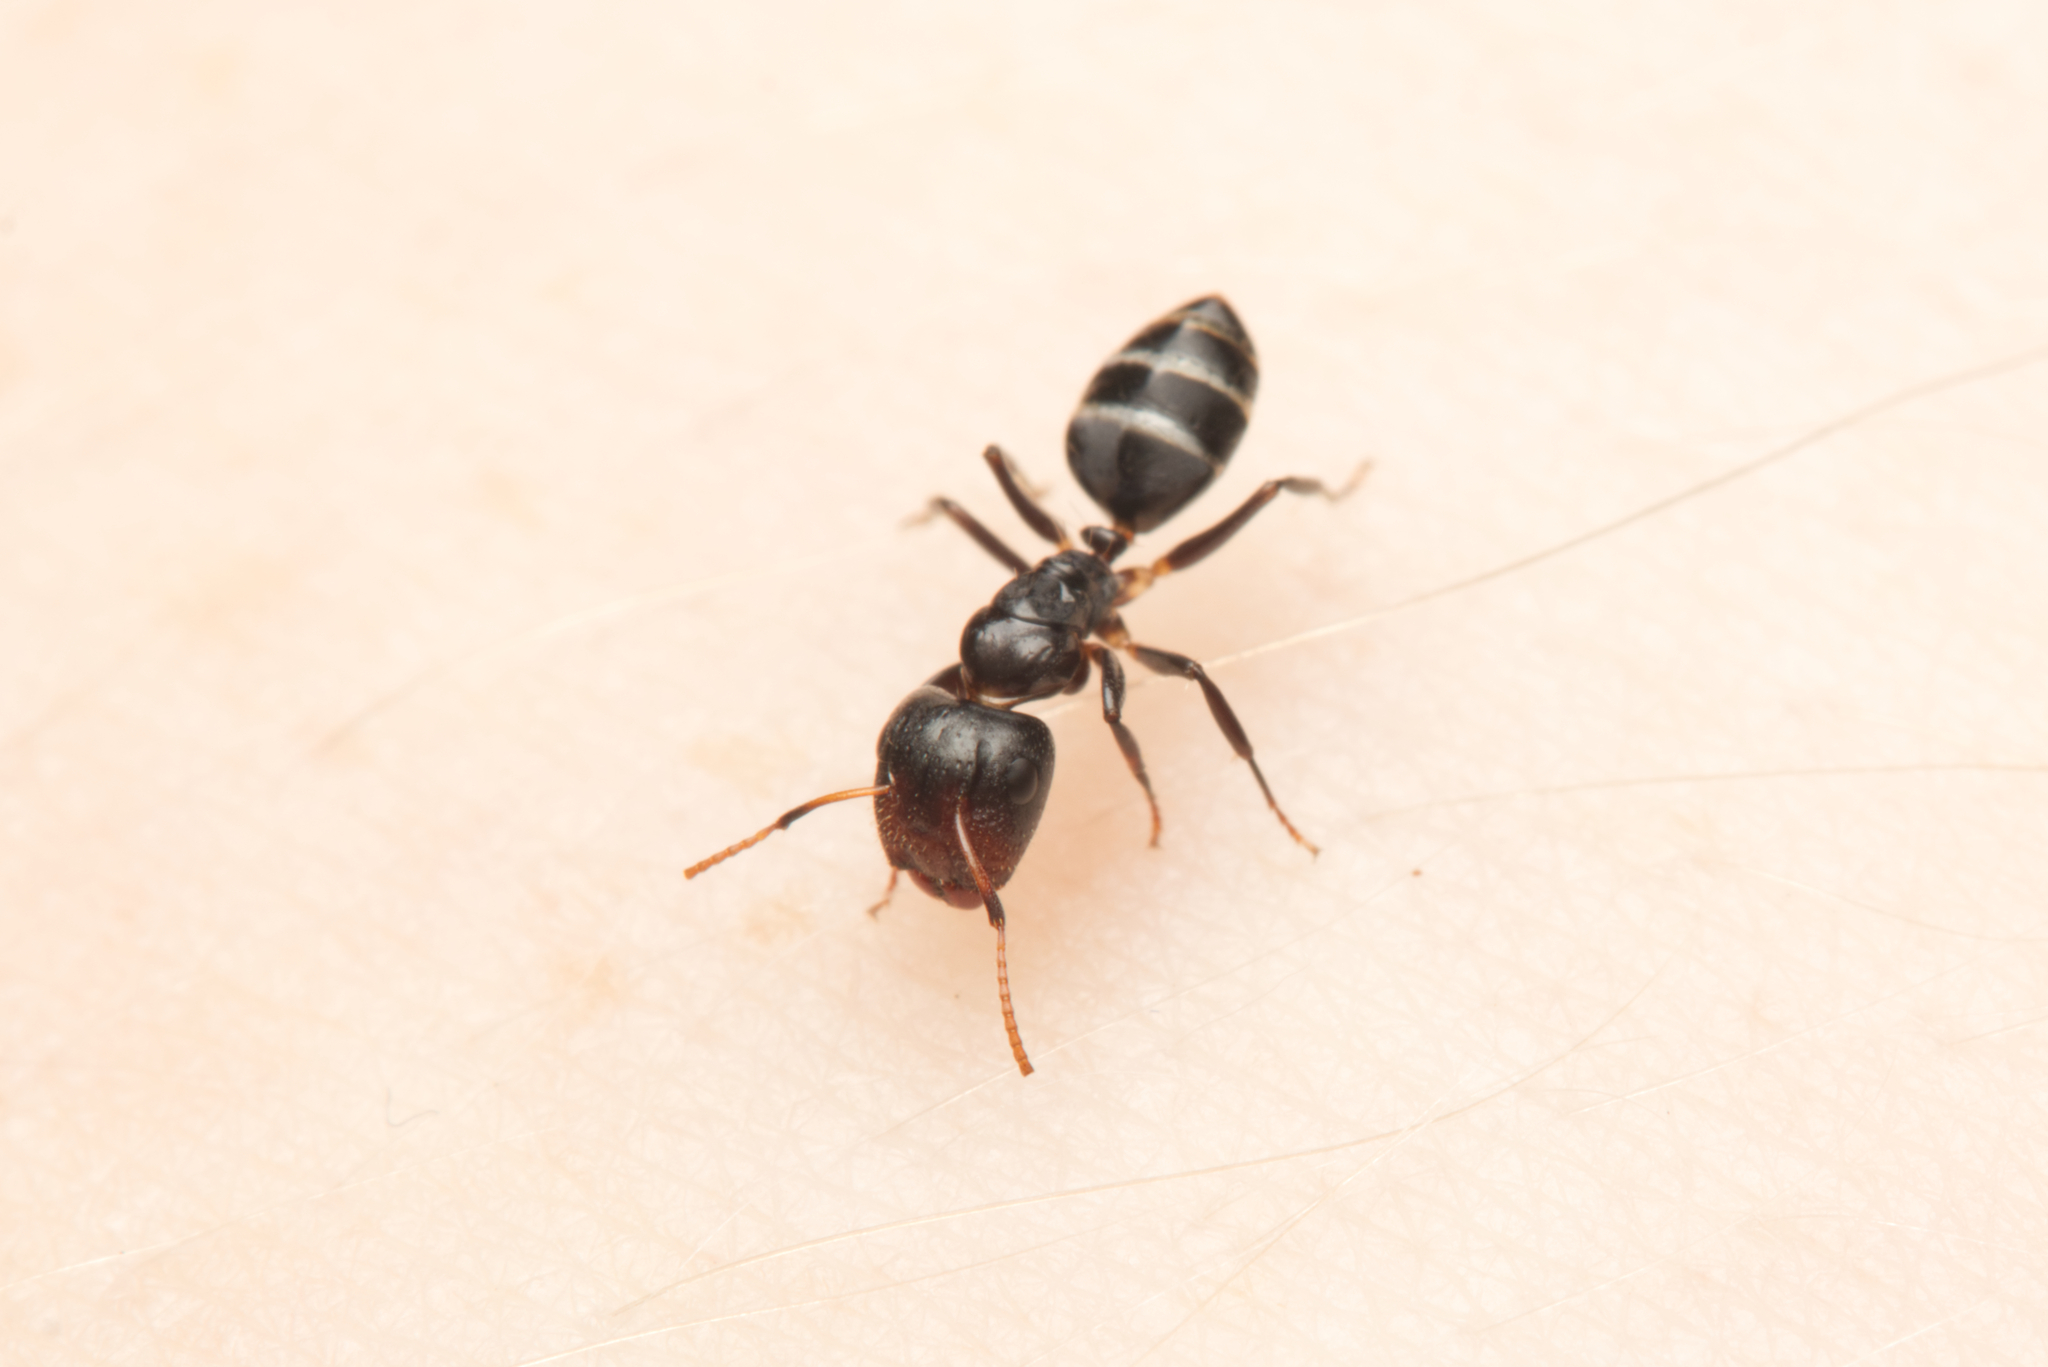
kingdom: Animalia
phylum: Arthropoda
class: Insecta
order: Hymenoptera
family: Formicidae
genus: Camponotus
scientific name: Camponotus mackayensis
